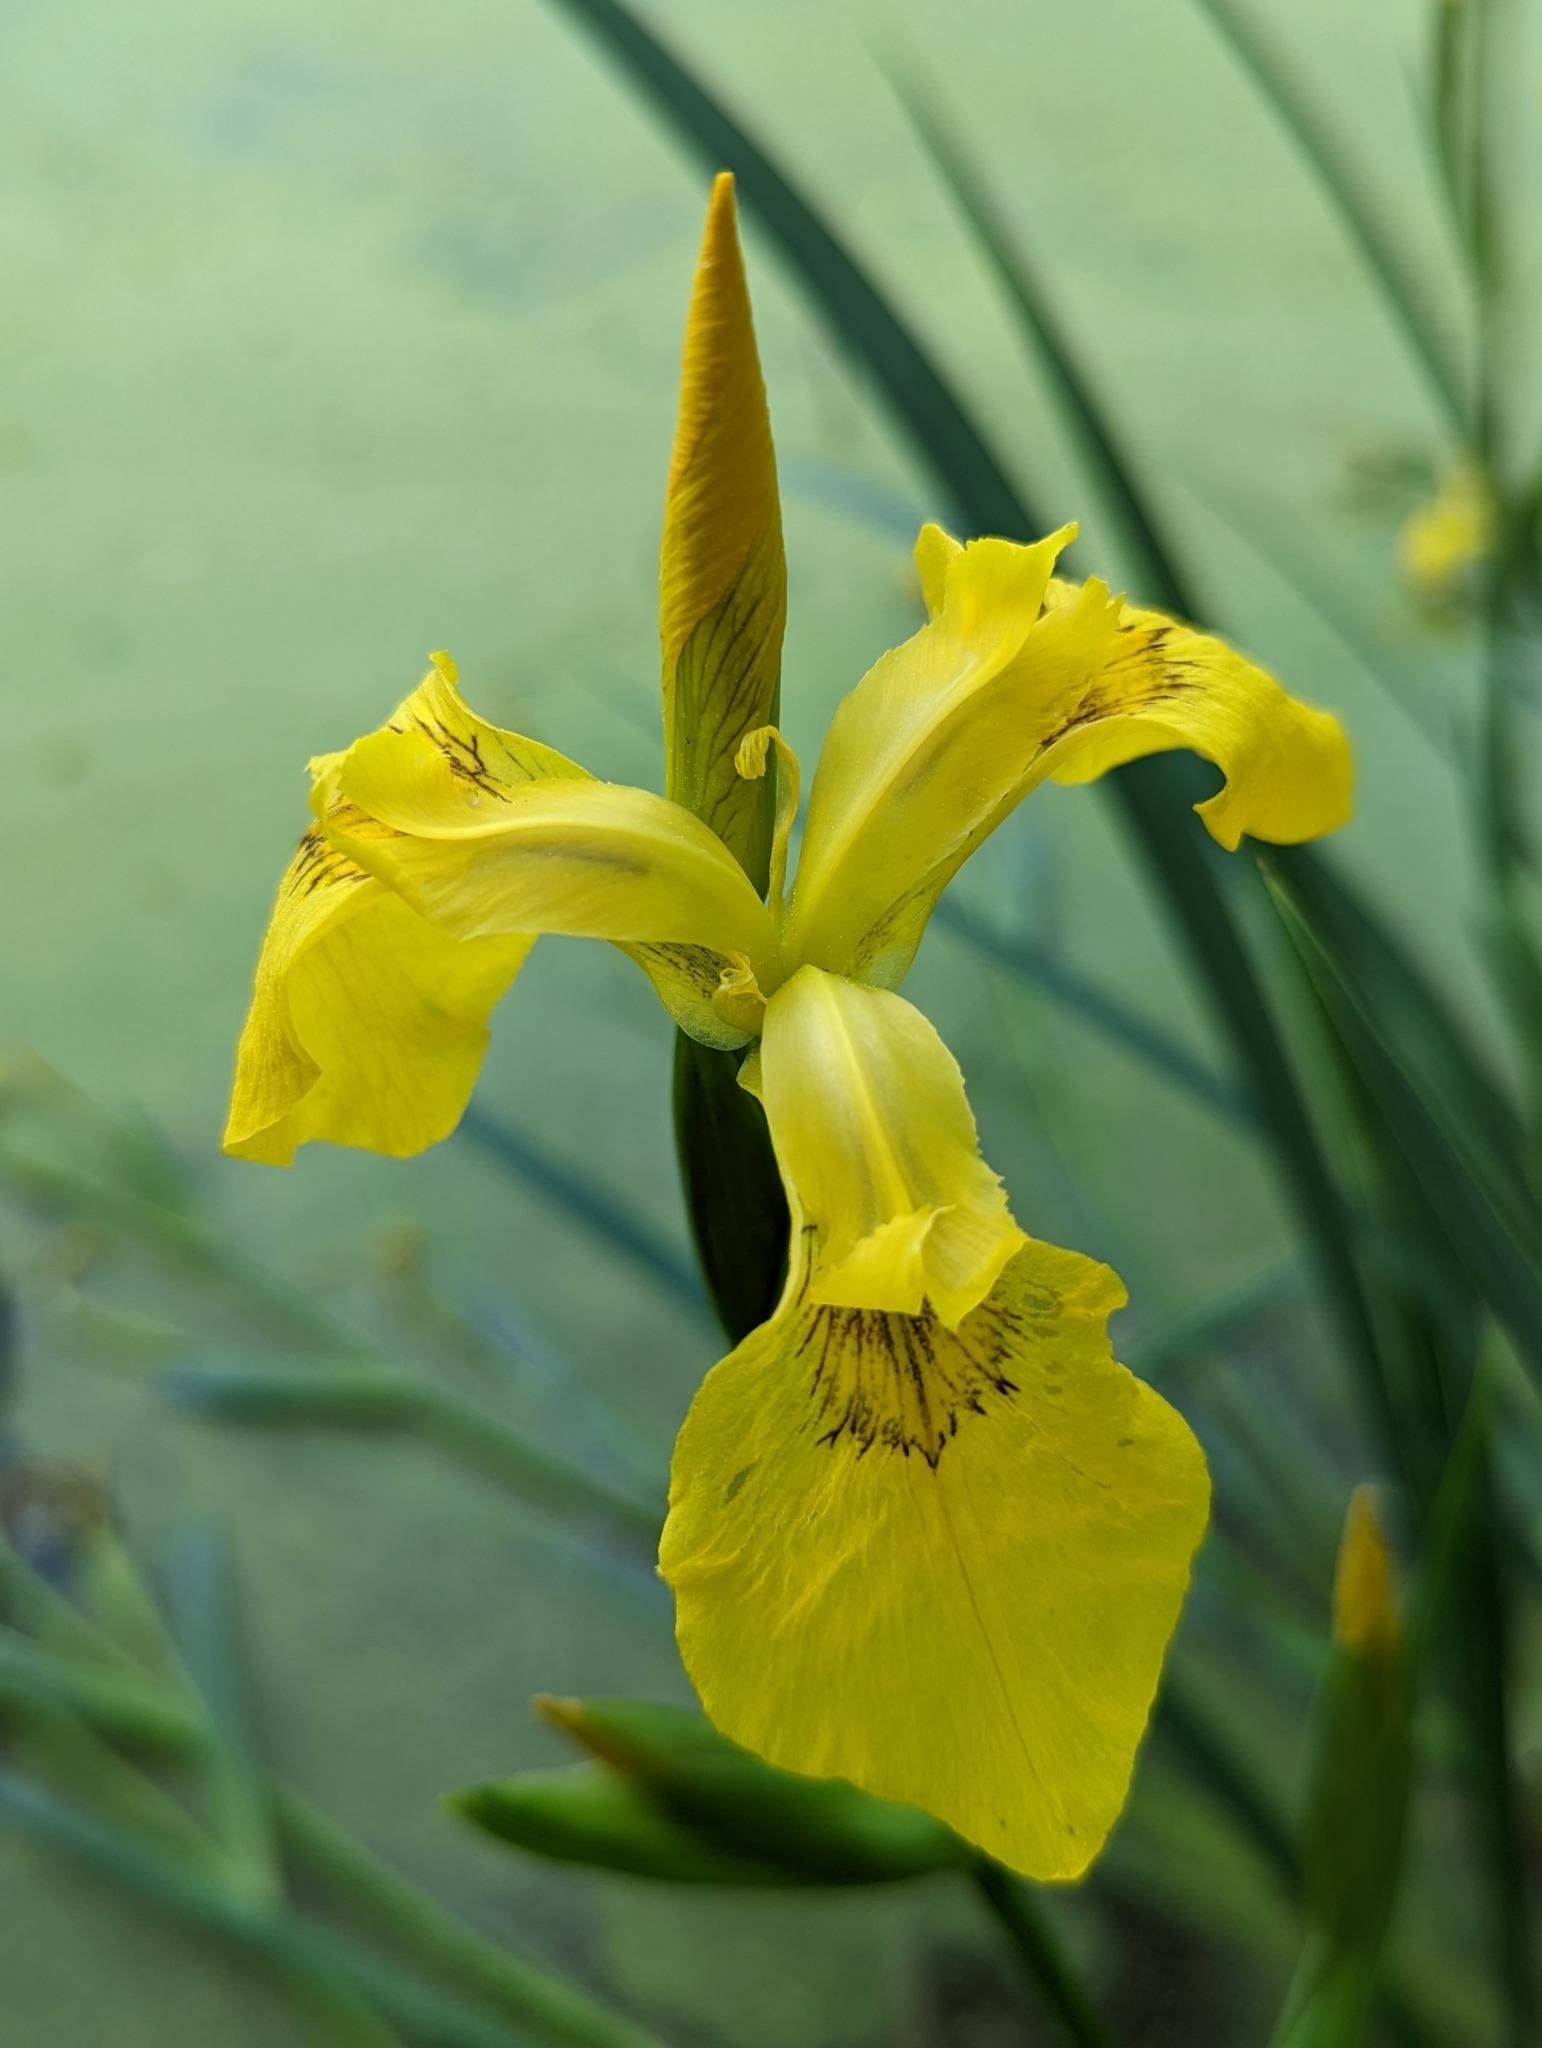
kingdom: Plantae
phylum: Tracheophyta
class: Liliopsida
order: Asparagales
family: Iridaceae
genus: Iris
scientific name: Iris pseudacorus
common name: Yellow flag
